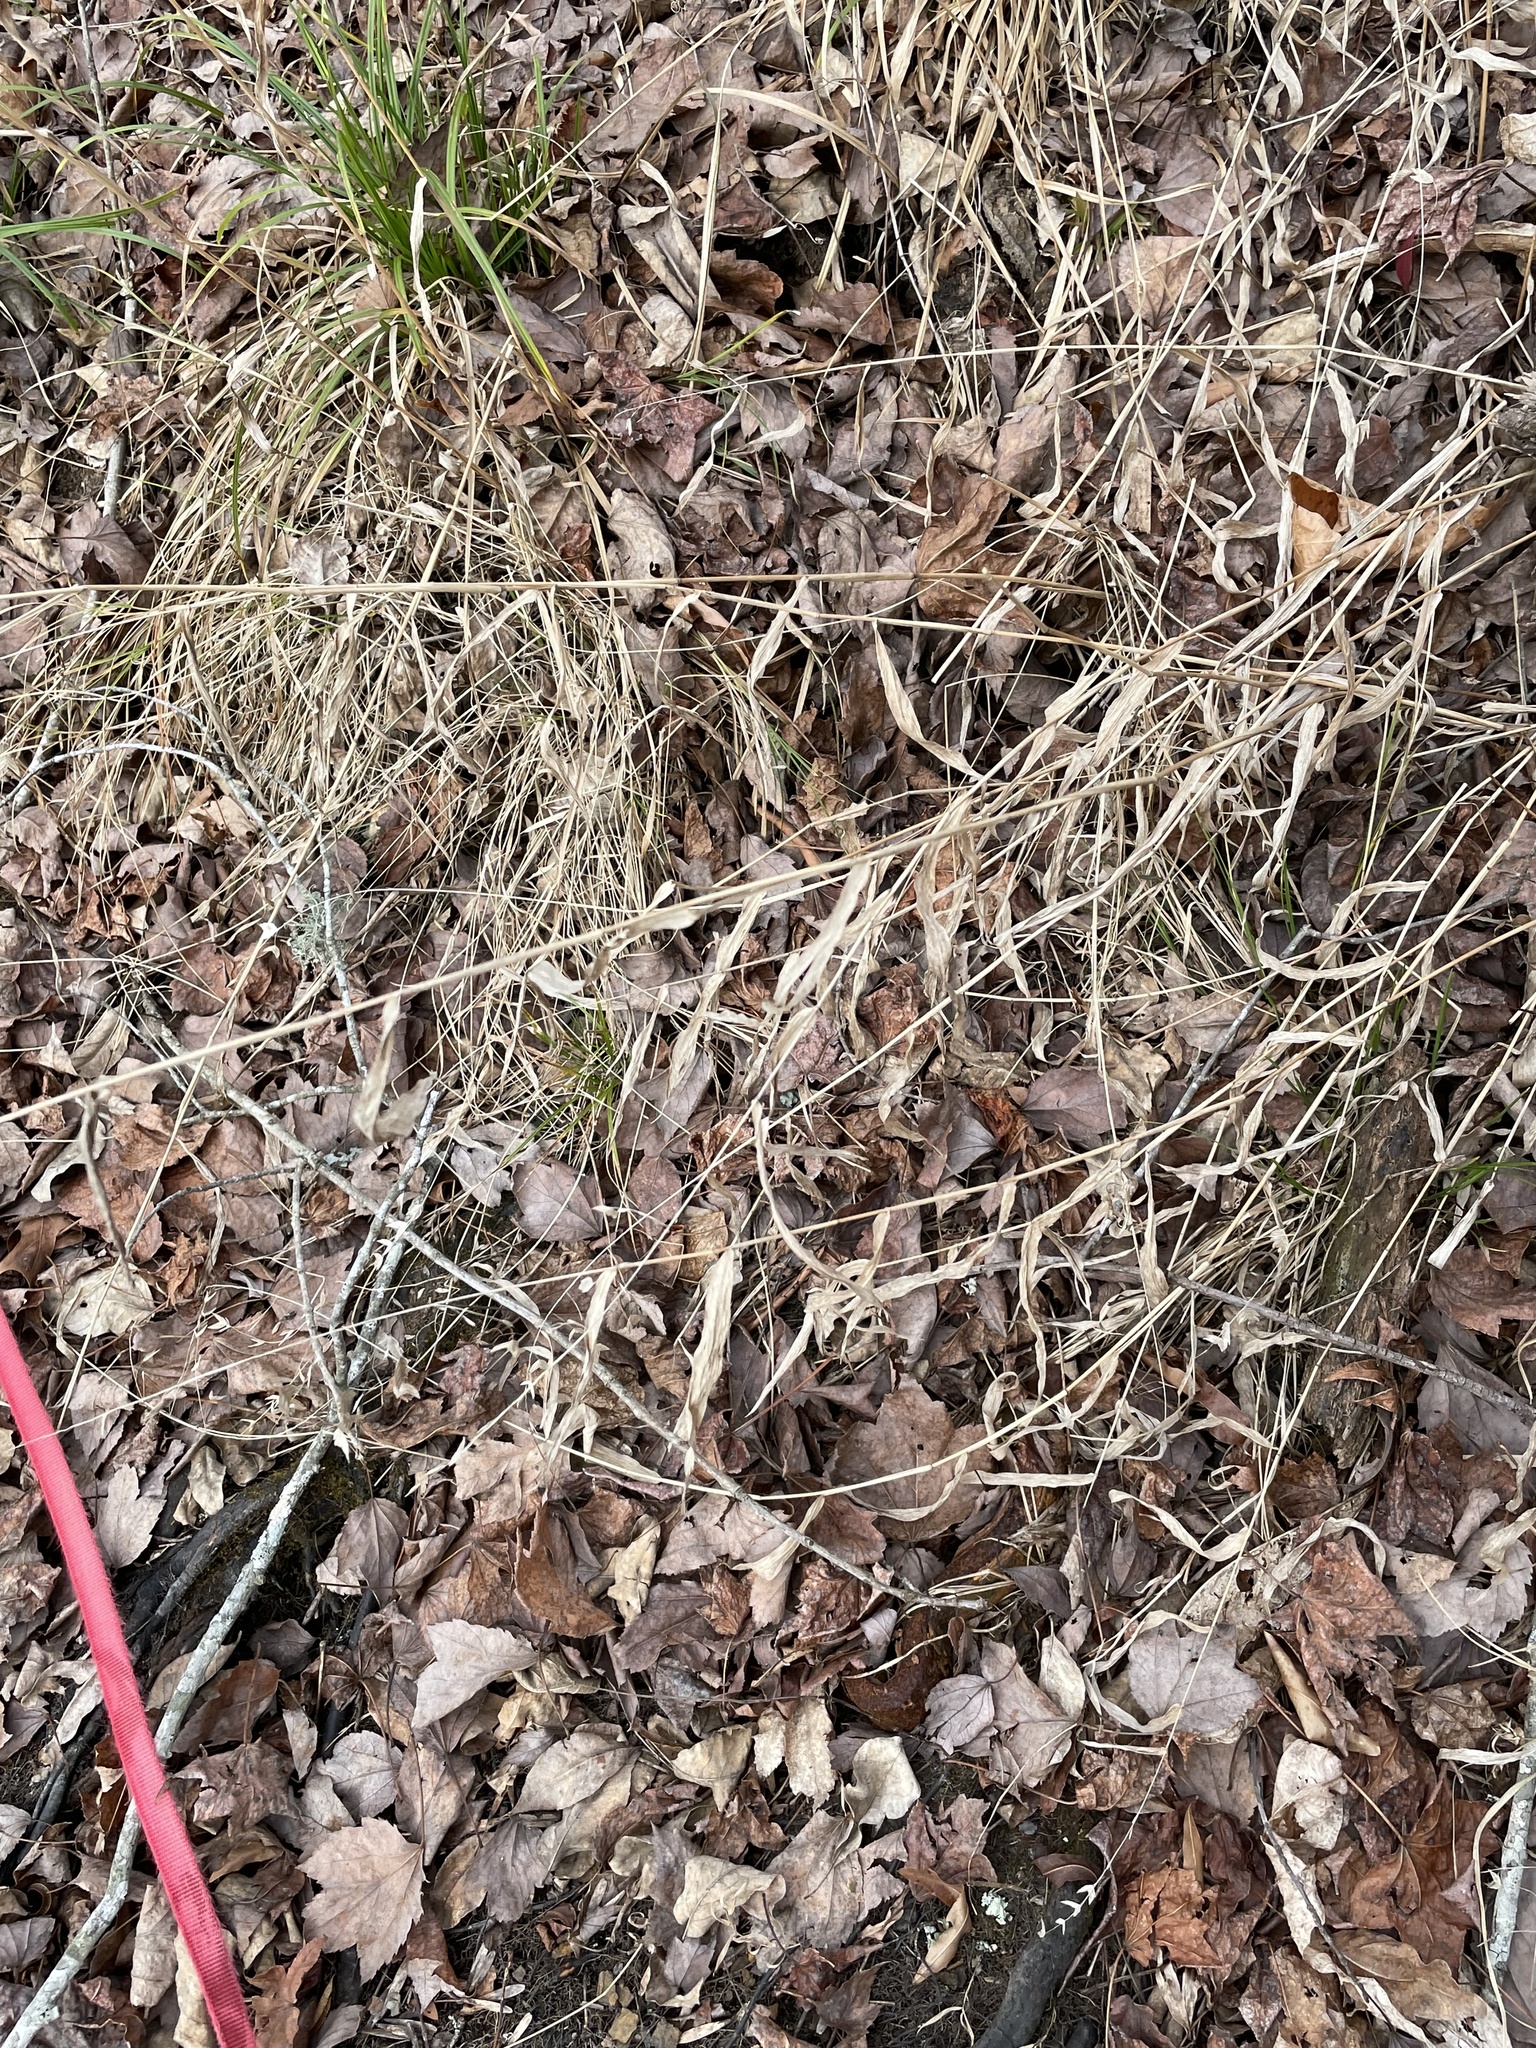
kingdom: Plantae
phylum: Tracheophyta
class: Liliopsida
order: Poales
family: Poaceae
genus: Chasmanthium
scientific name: Chasmanthium latifolium
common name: Broad-leaved chasmanthium
